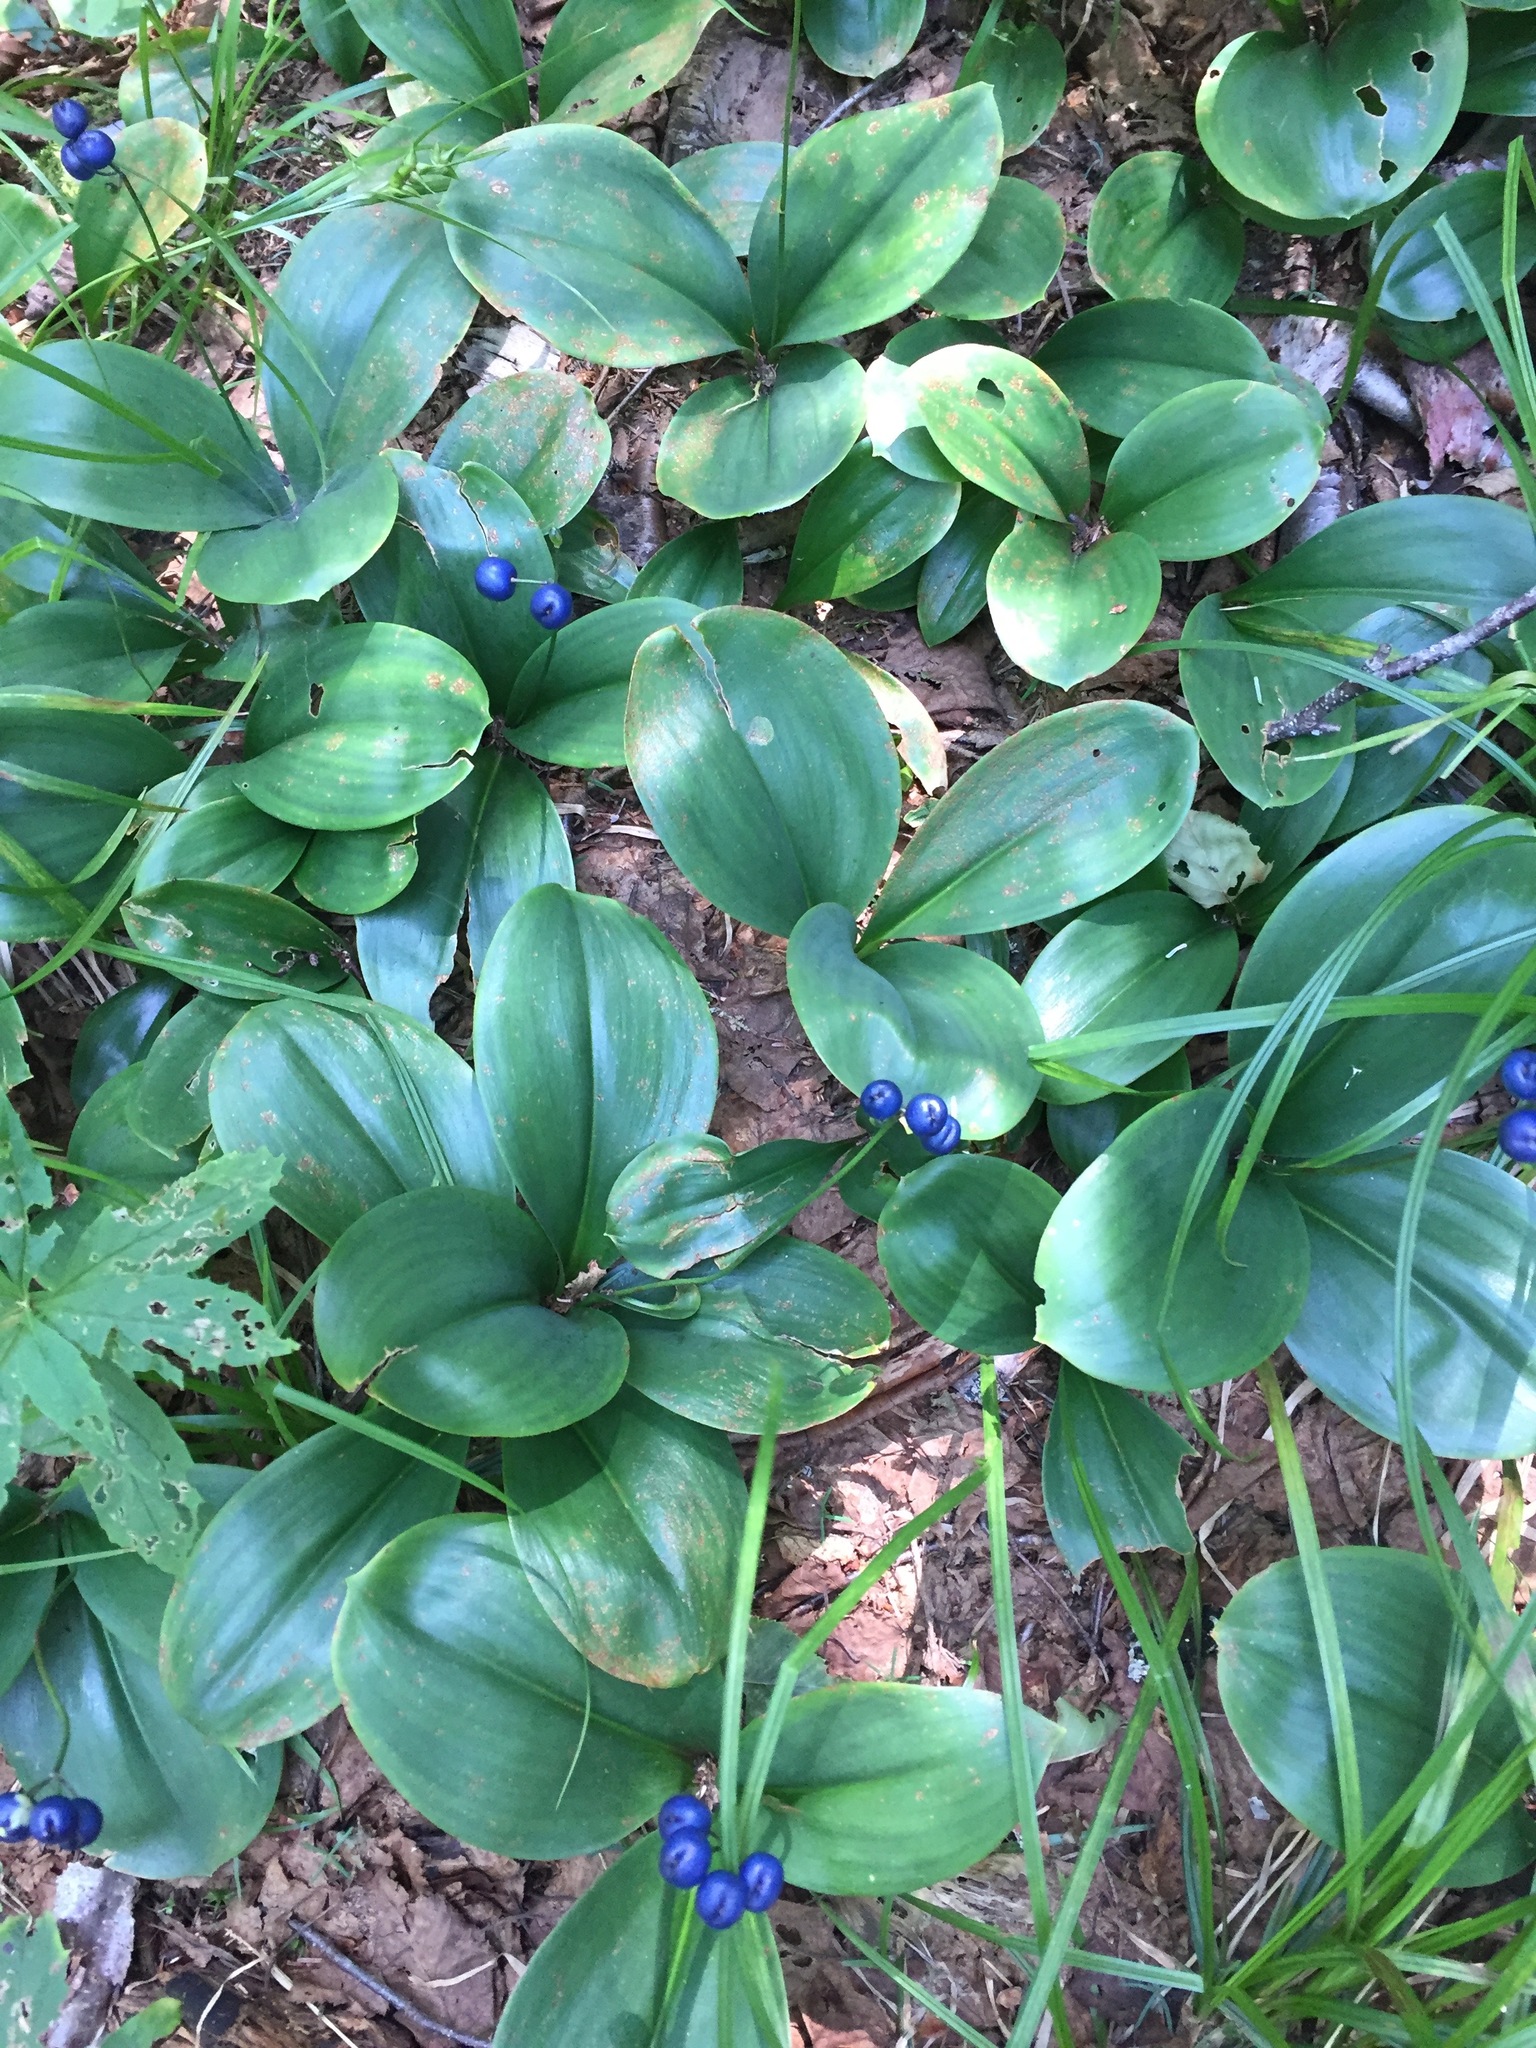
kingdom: Plantae
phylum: Tracheophyta
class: Liliopsida
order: Liliales
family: Liliaceae
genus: Clintonia
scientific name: Clintonia borealis
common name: Yellow clintonia
